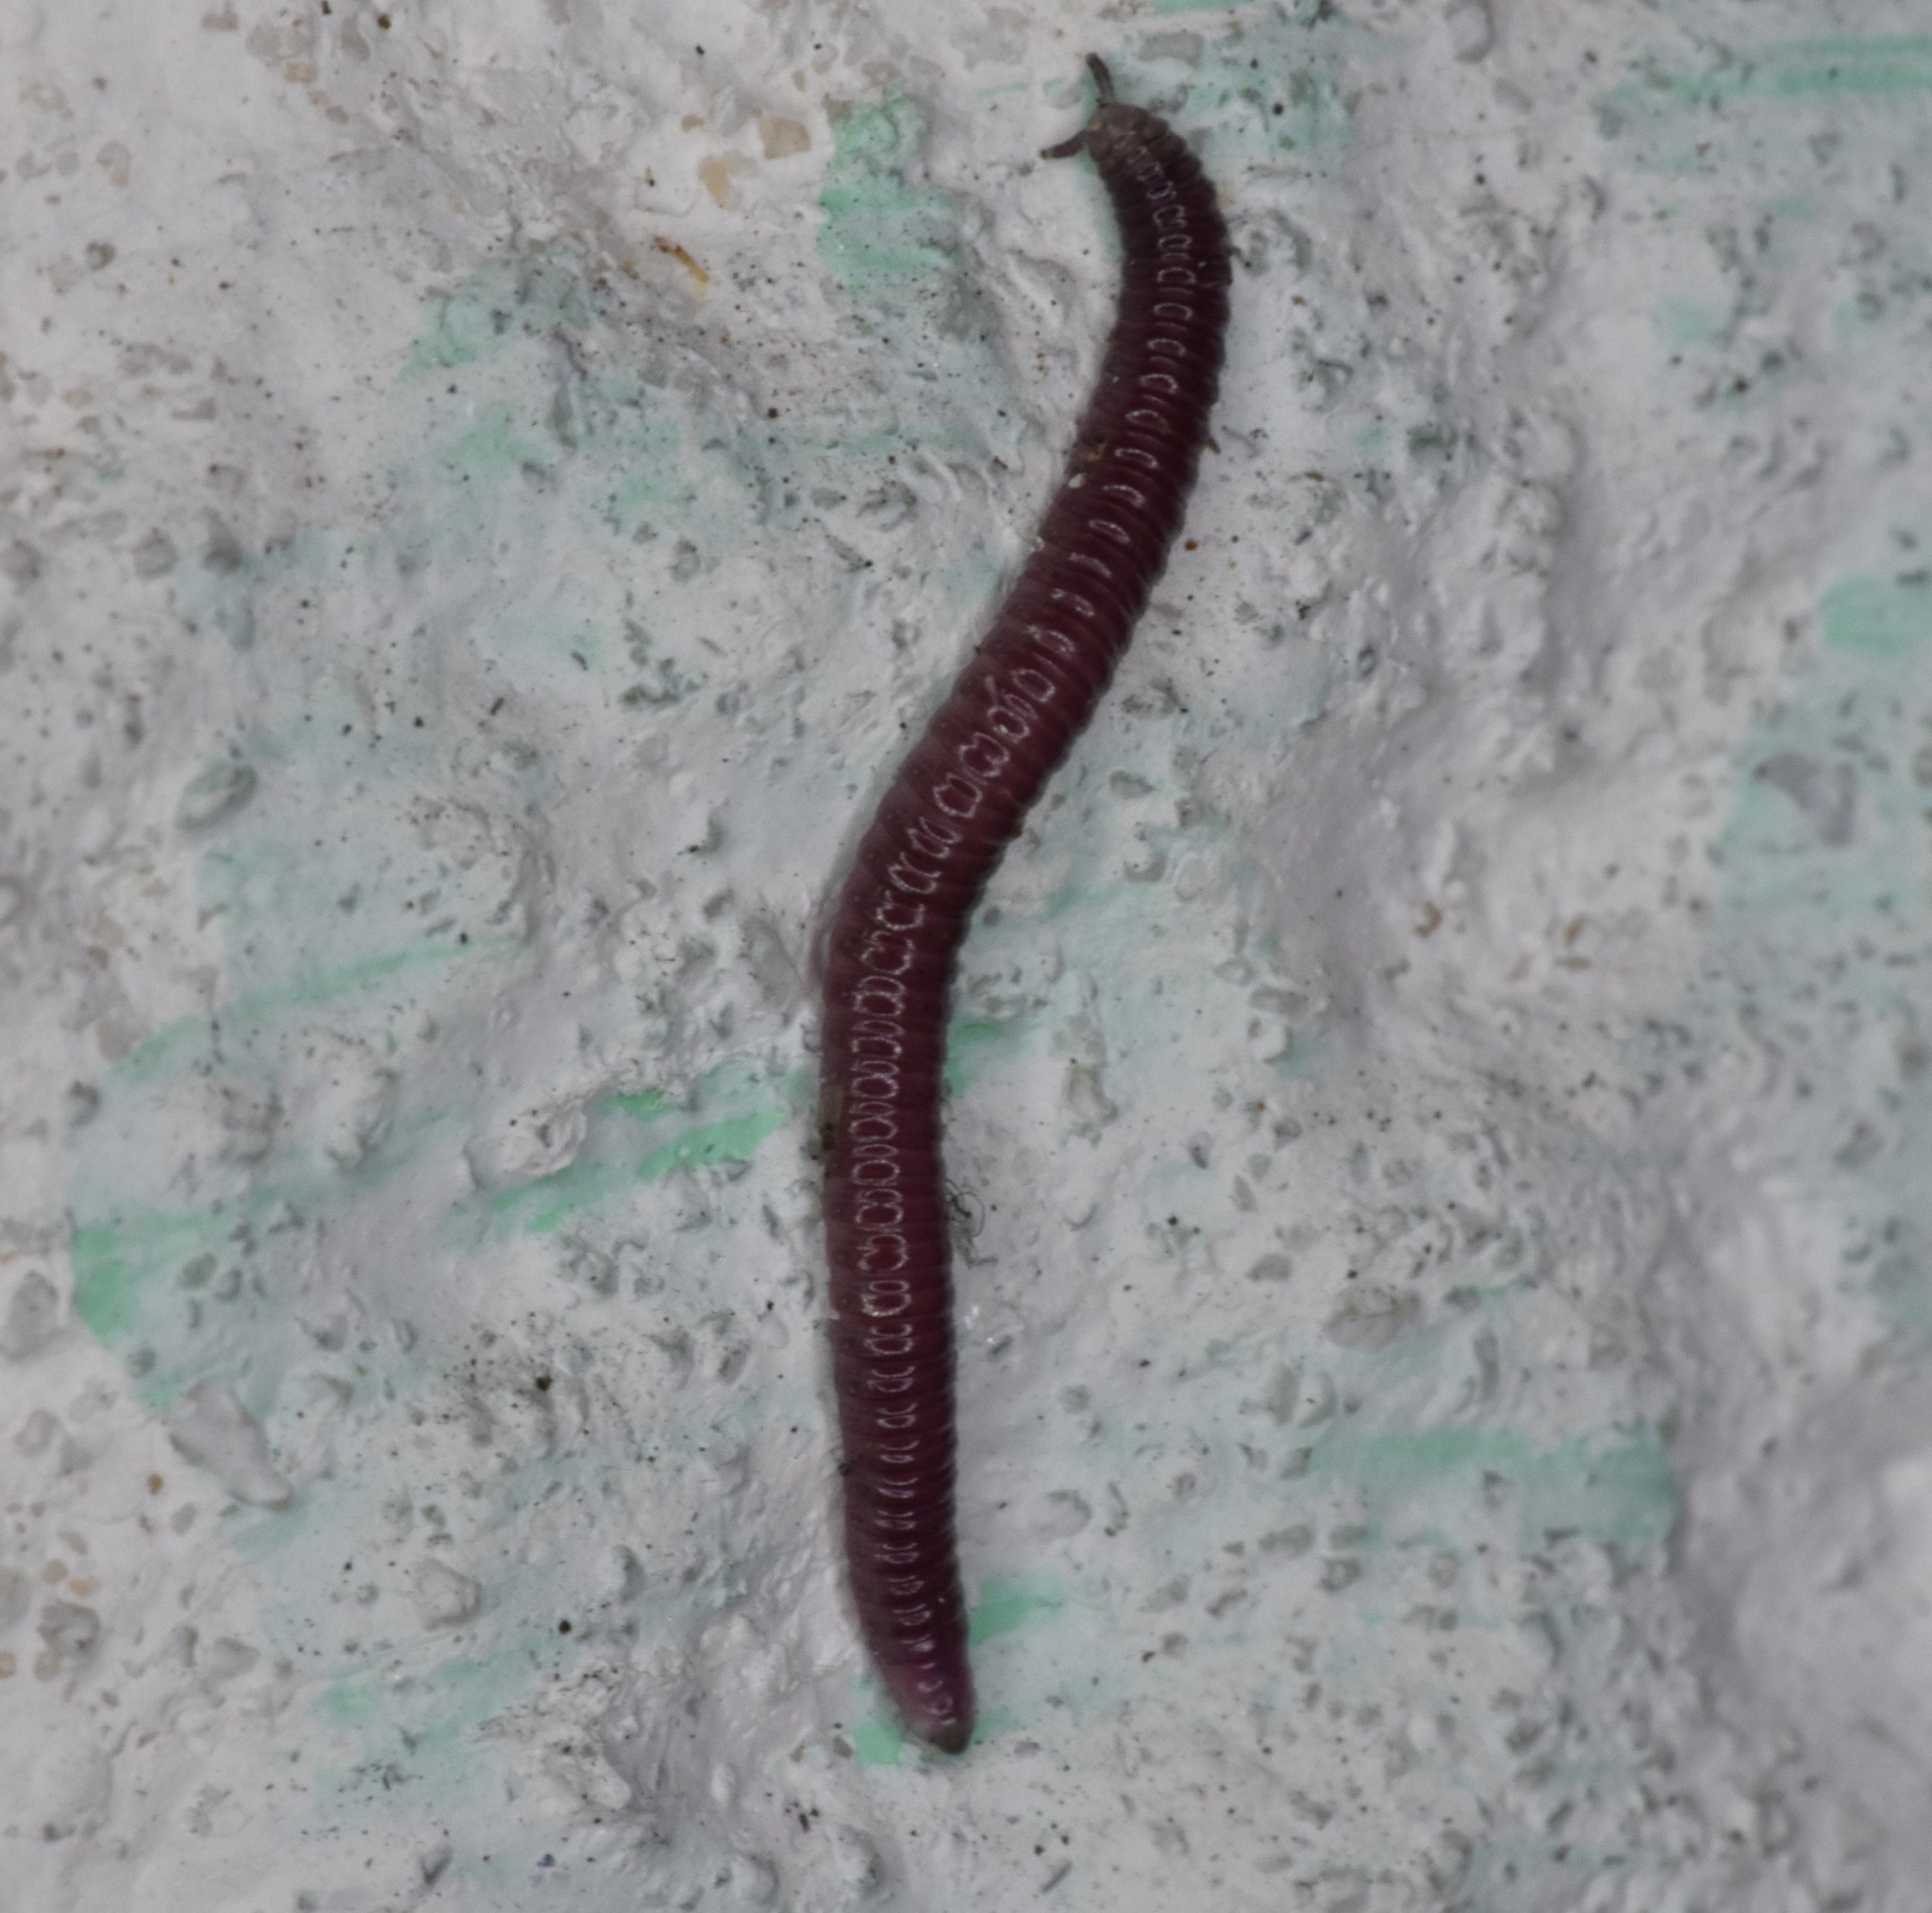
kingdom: Animalia
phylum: Arthropoda
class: Diplopoda
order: Polyzoniida
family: Siphonotidae
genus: Rhinotus
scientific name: Rhinotus purpureus
